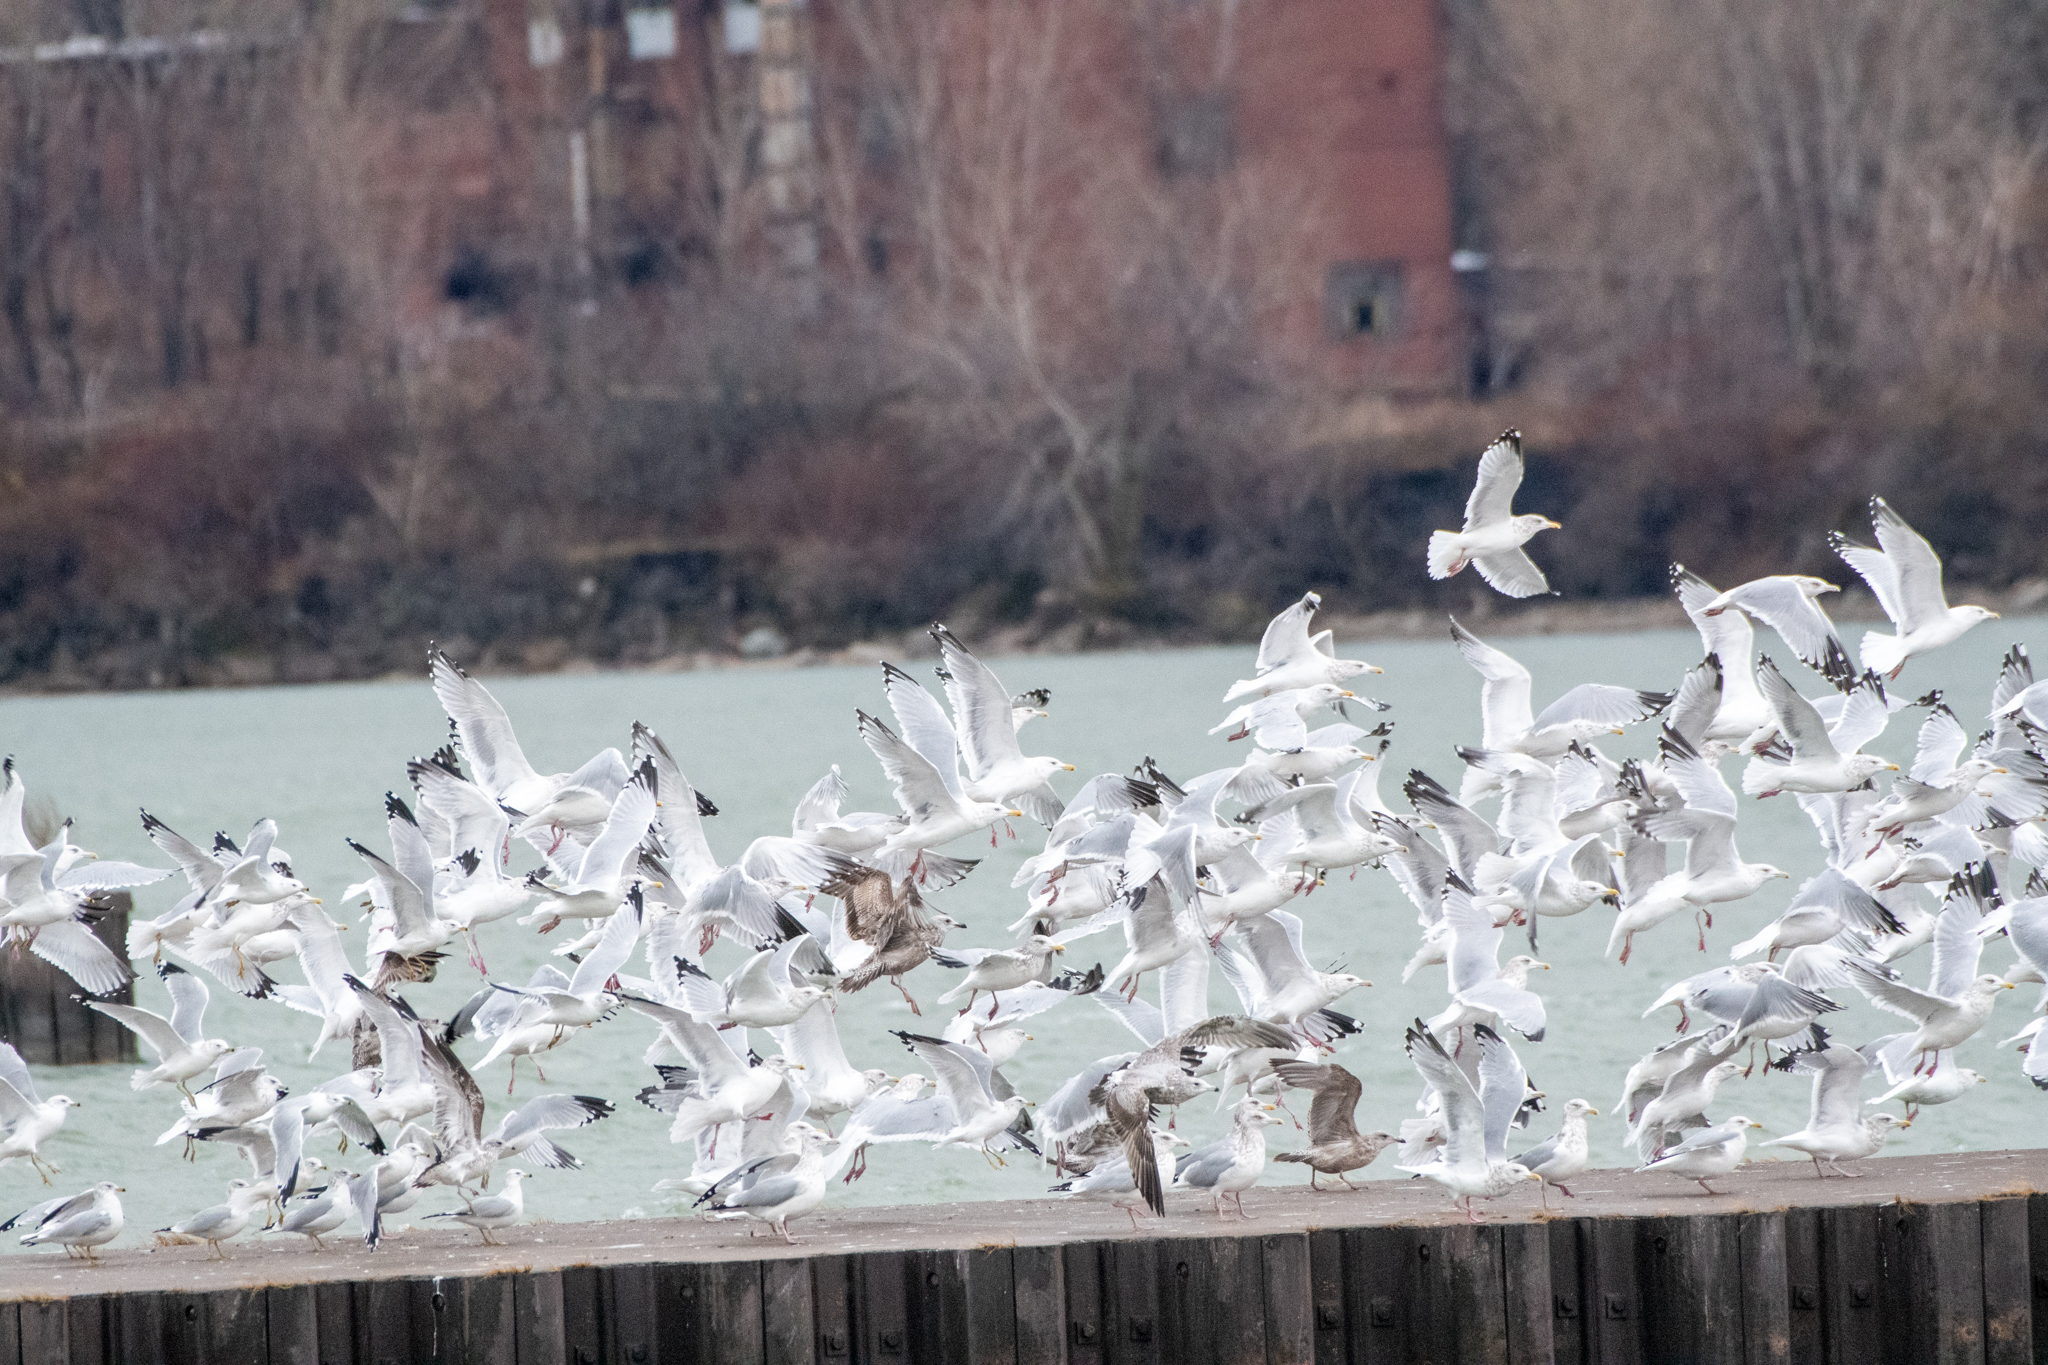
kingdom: Animalia
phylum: Chordata
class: Aves
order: Charadriiformes
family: Laridae
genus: Larus
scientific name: Larus argentatus
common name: Herring gull
